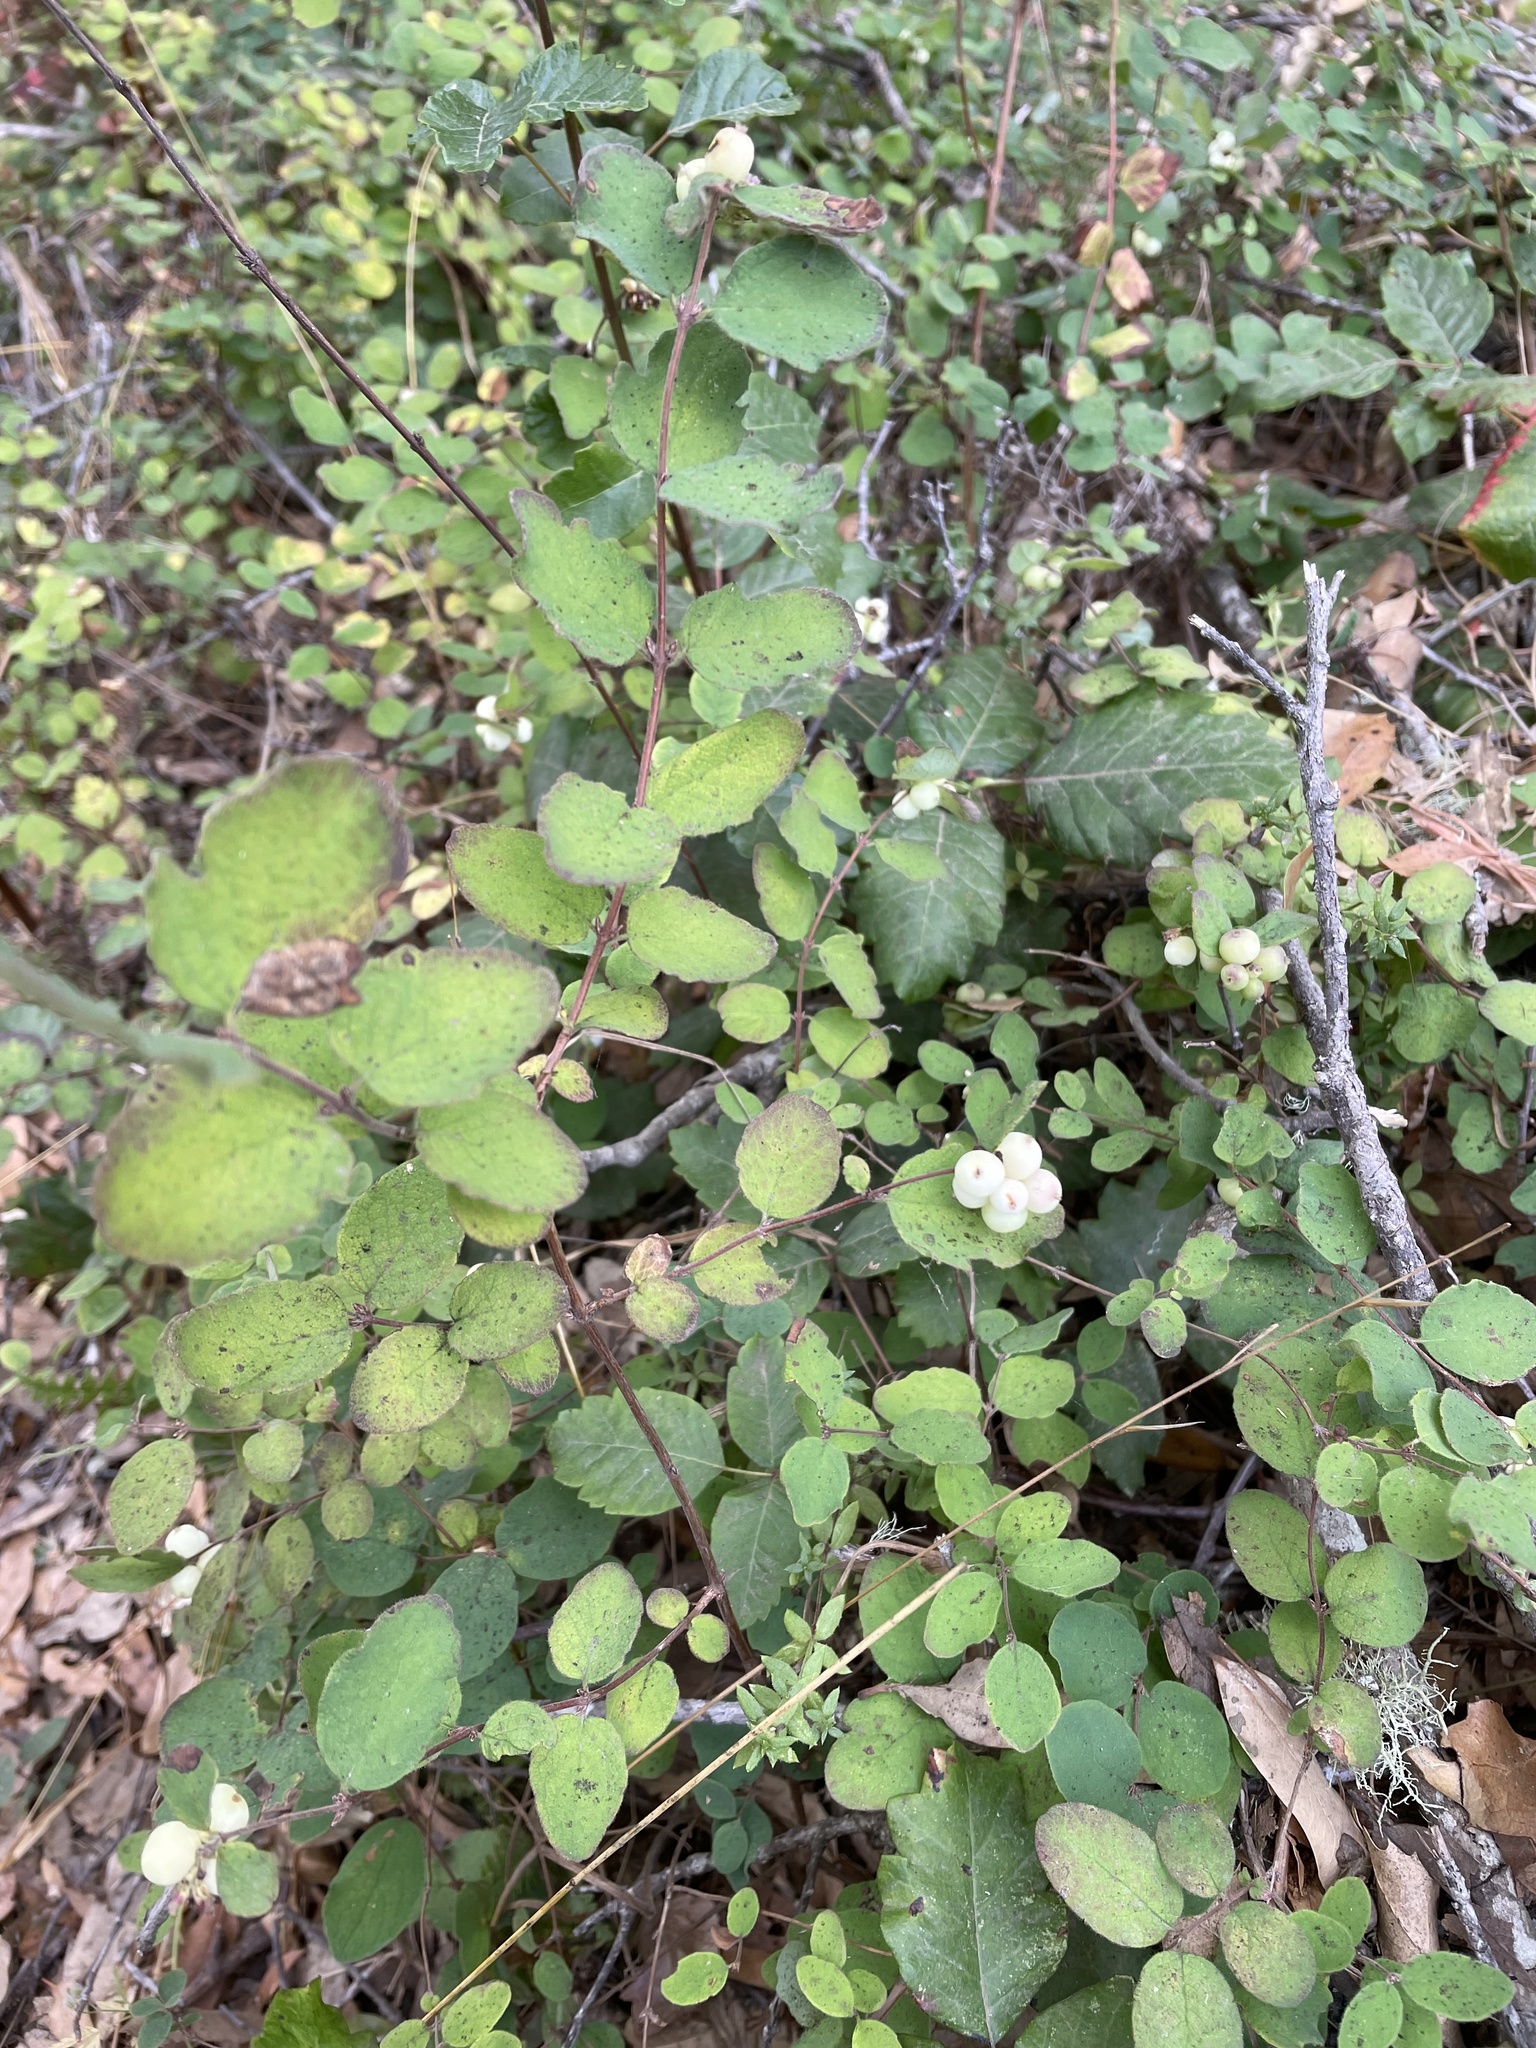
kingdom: Plantae
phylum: Tracheophyta
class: Magnoliopsida
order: Dipsacales
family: Caprifoliaceae
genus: Symphoricarpos
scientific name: Symphoricarpos mollis
